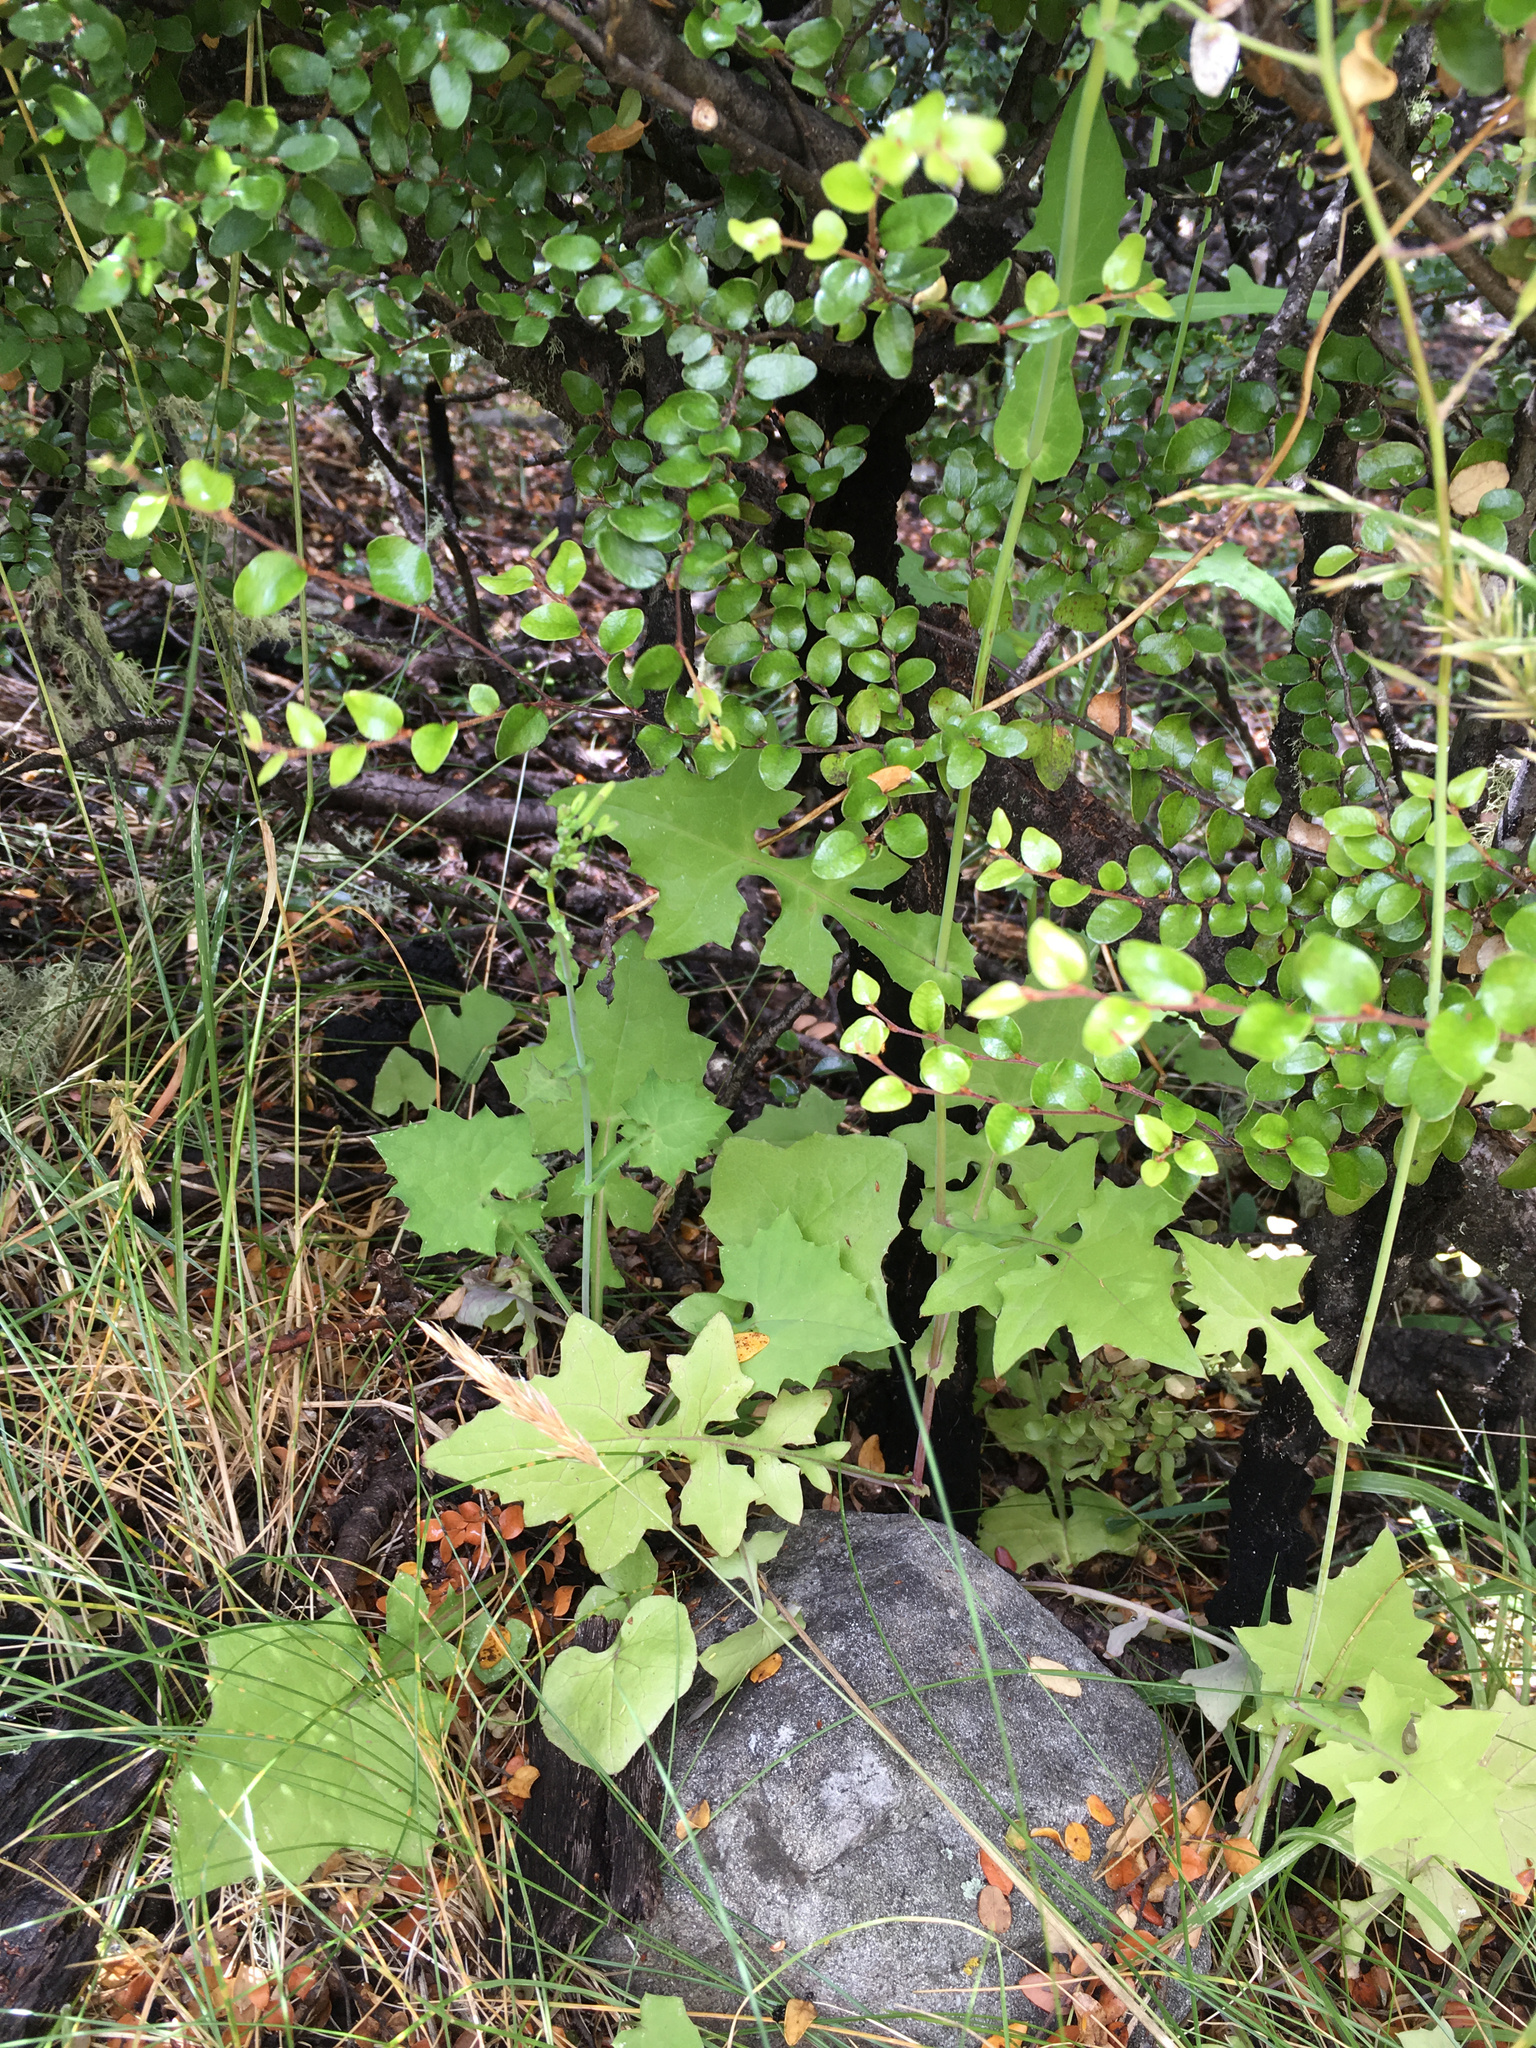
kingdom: Plantae
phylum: Tracheophyta
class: Magnoliopsida
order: Asterales
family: Asteraceae
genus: Mycelis
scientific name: Mycelis muralis
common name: Wall lettuce
